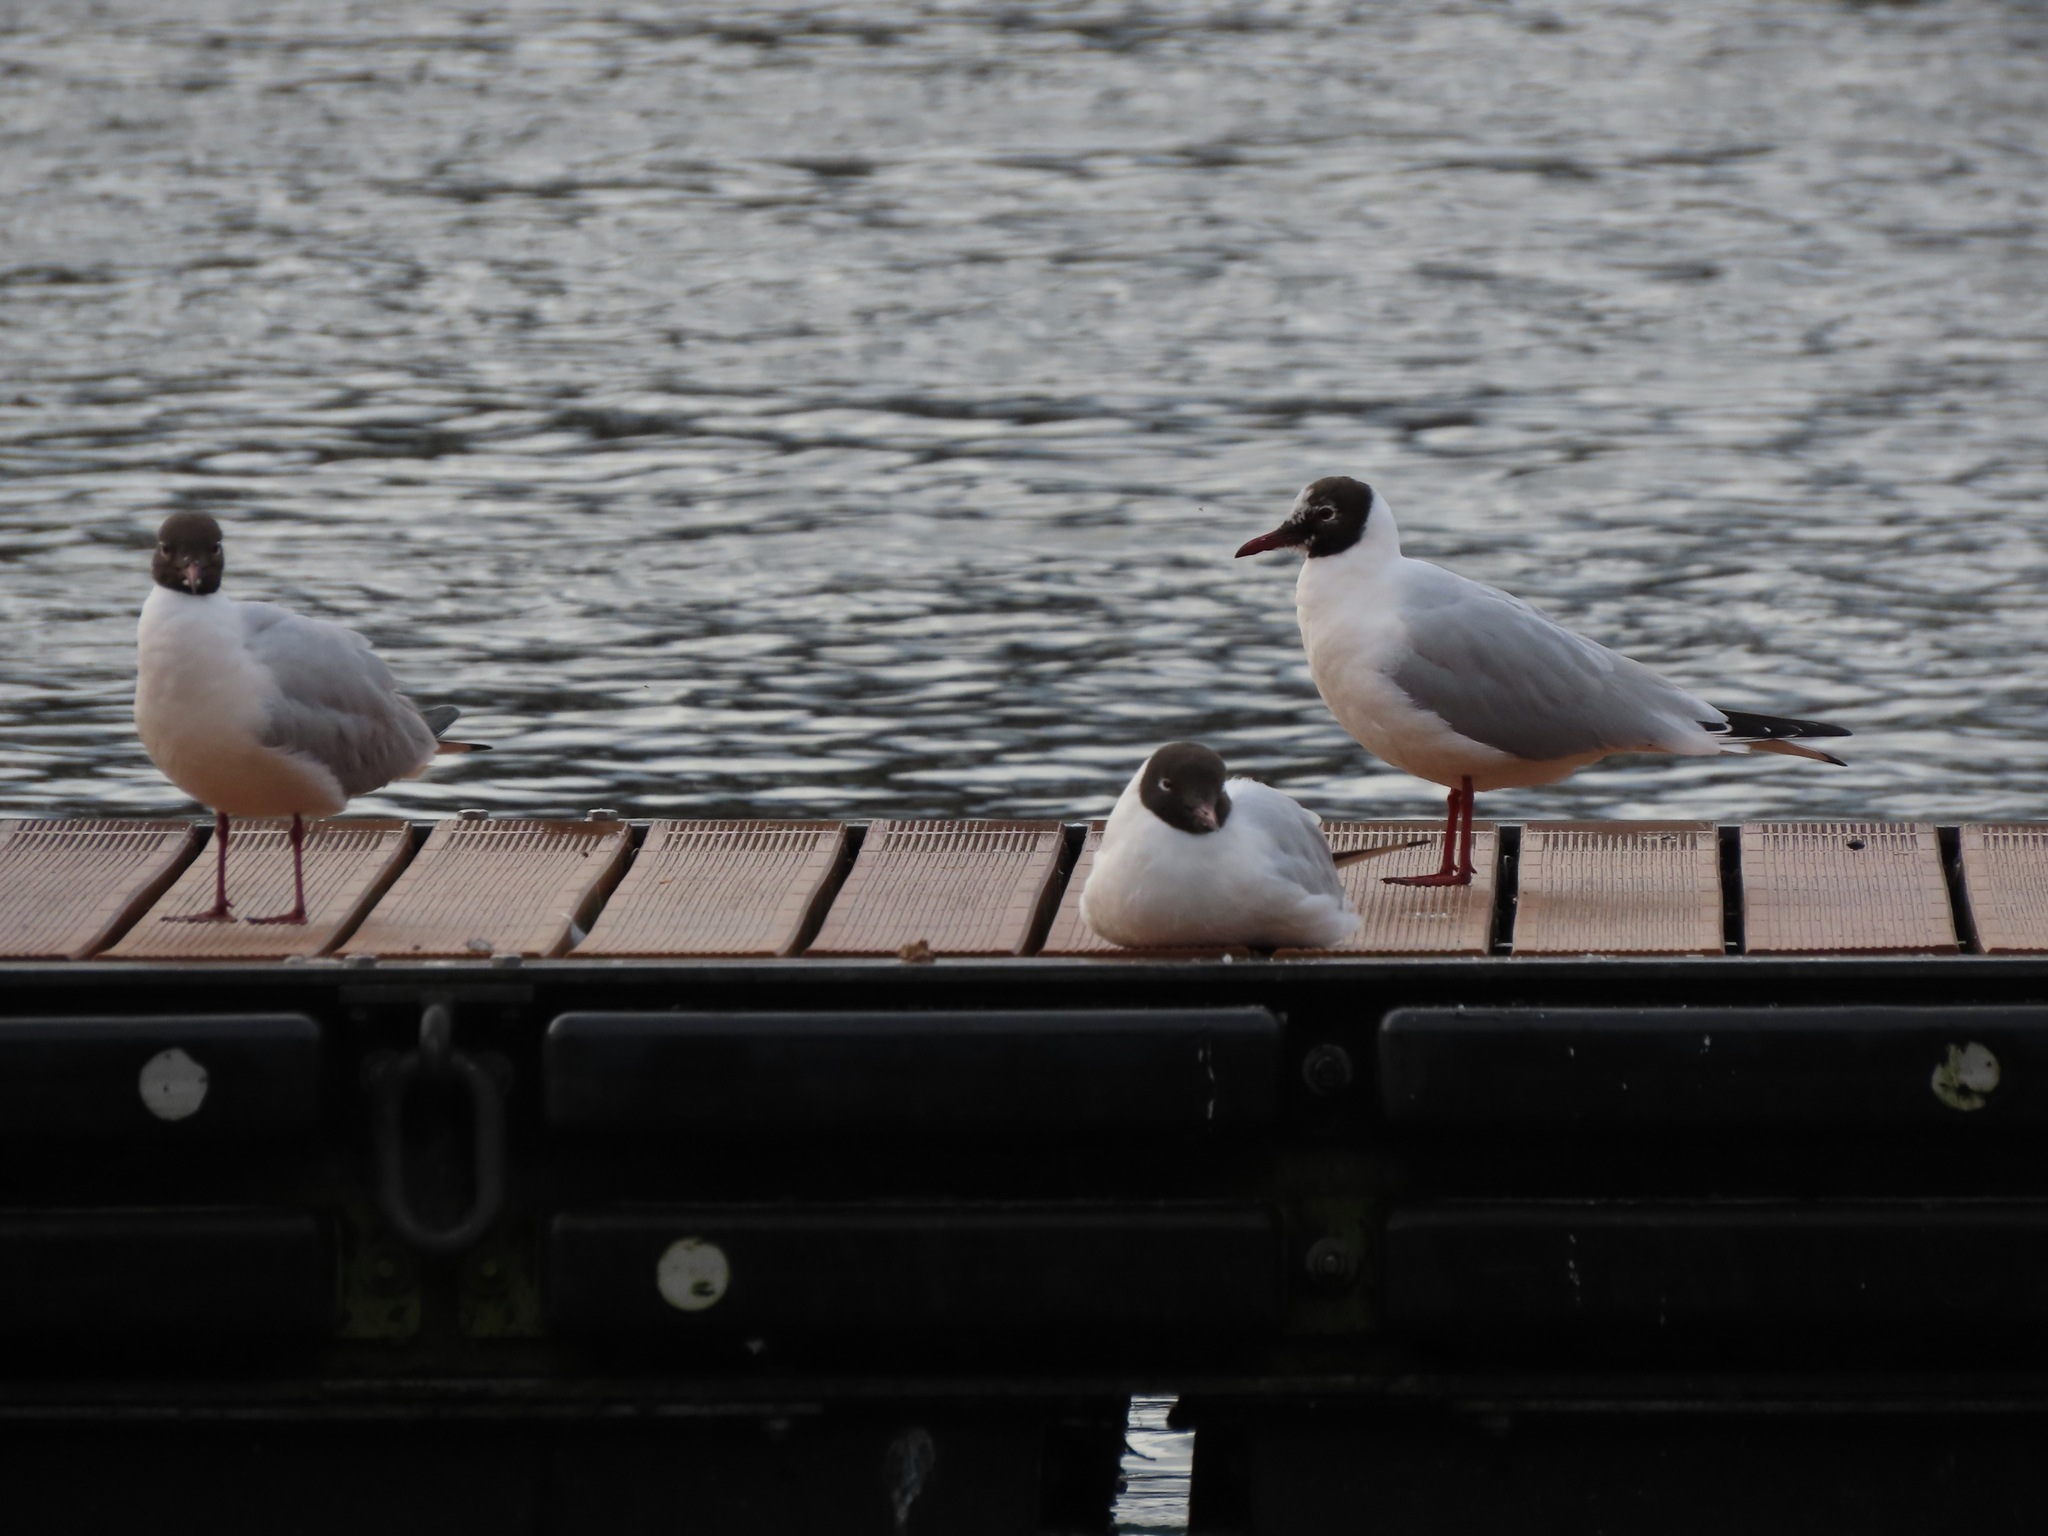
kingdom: Animalia
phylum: Chordata
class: Aves
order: Charadriiformes
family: Laridae
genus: Chroicocephalus
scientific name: Chroicocephalus ridibundus
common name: Black-headed gull
